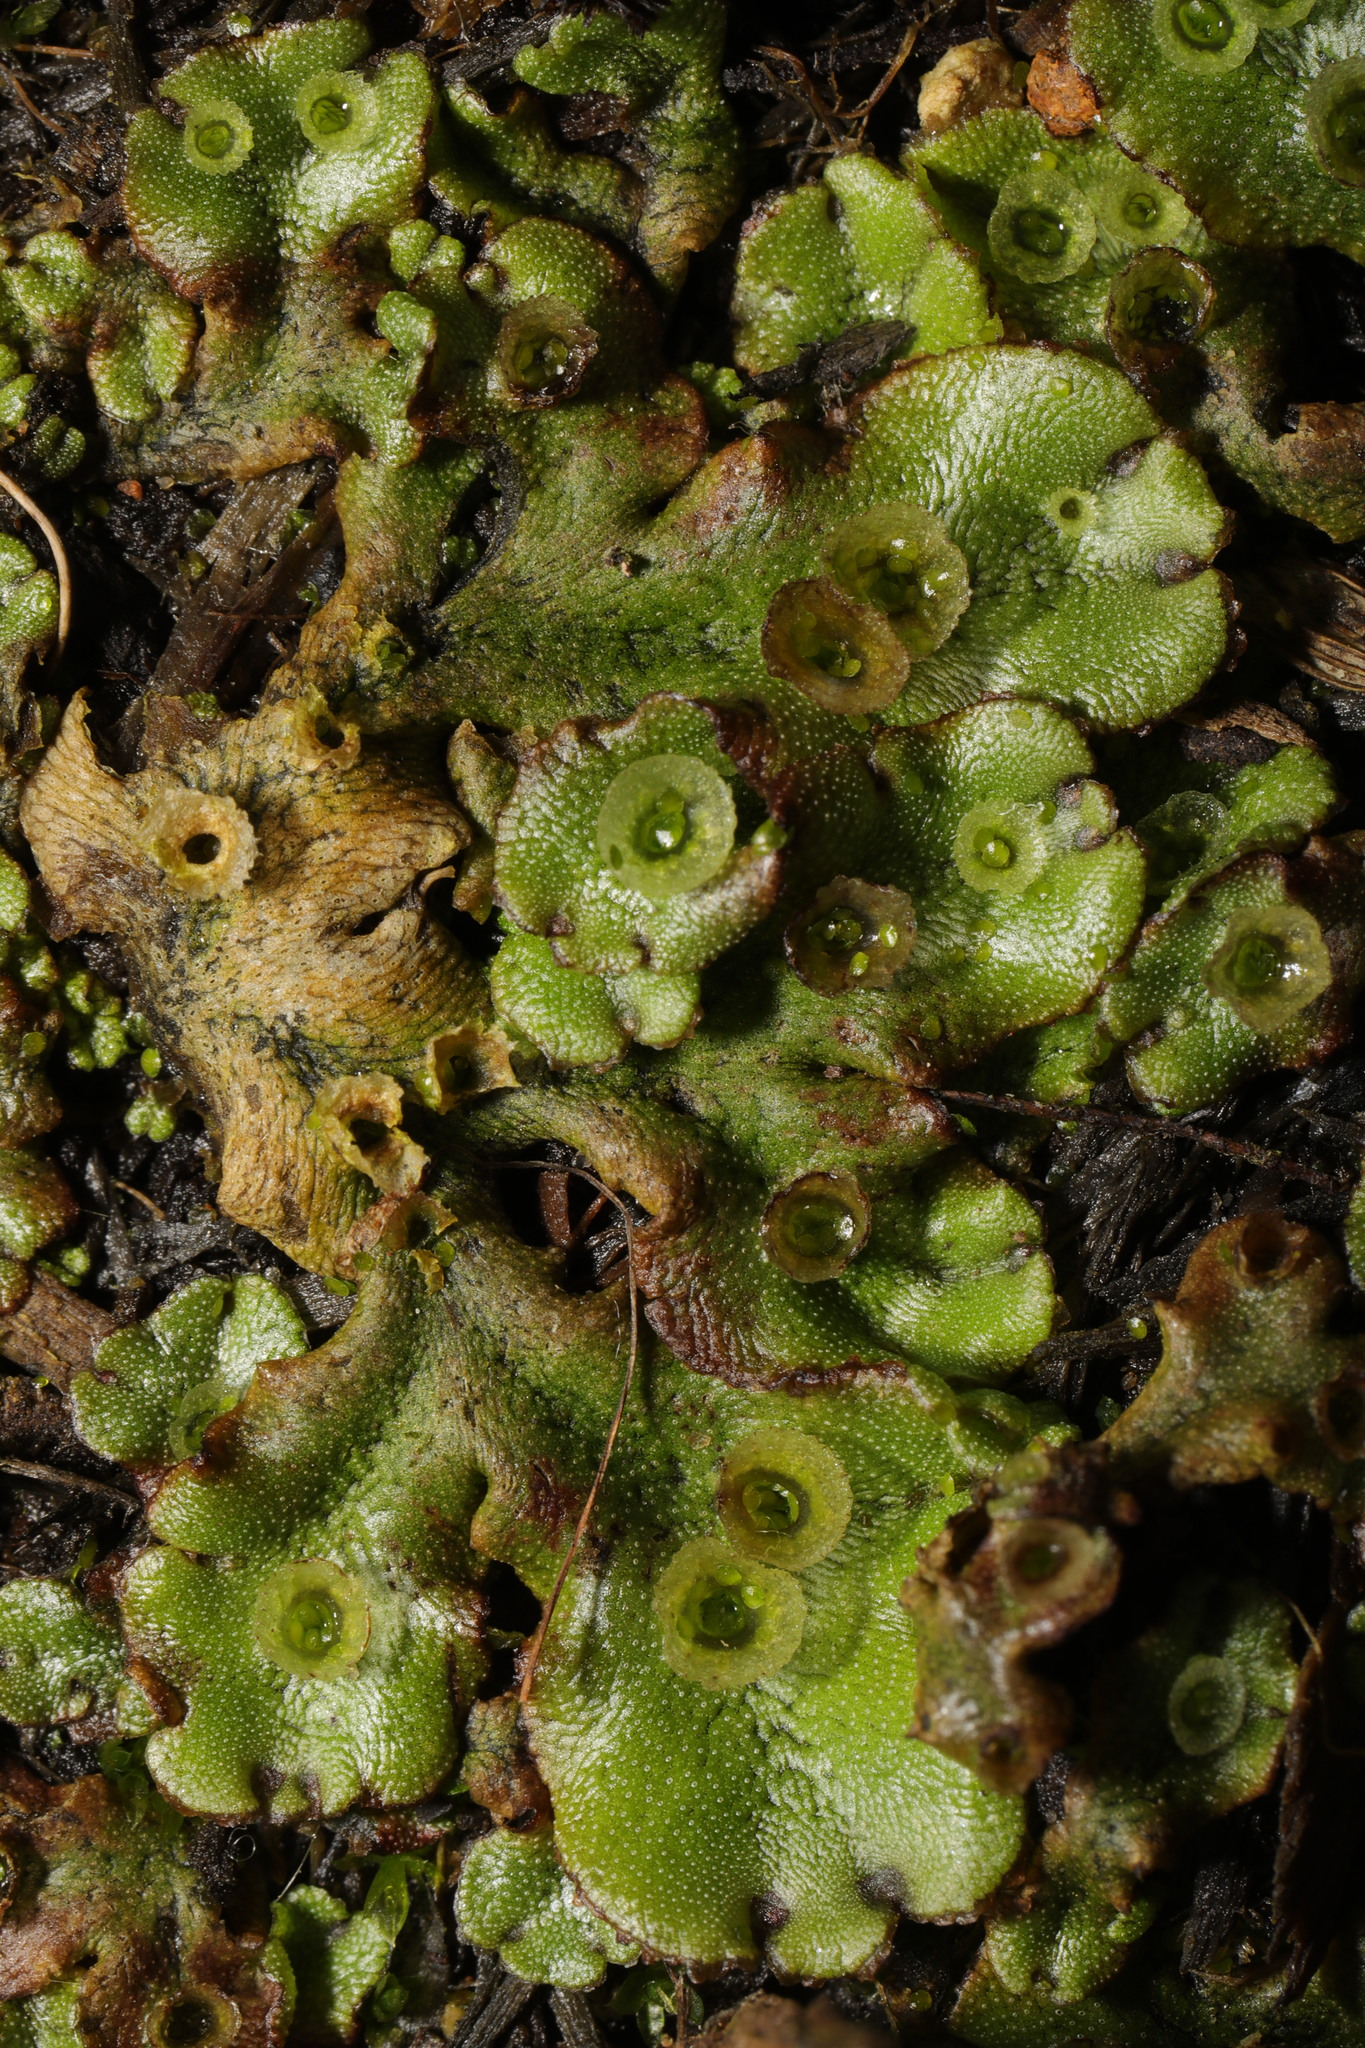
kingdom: Plantae
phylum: Marchantiophyta
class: Marchantiopsida
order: Marchantiales
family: Marchantiaceae
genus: Marchantia
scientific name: Marchantia polymorpha
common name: Common liverwort
